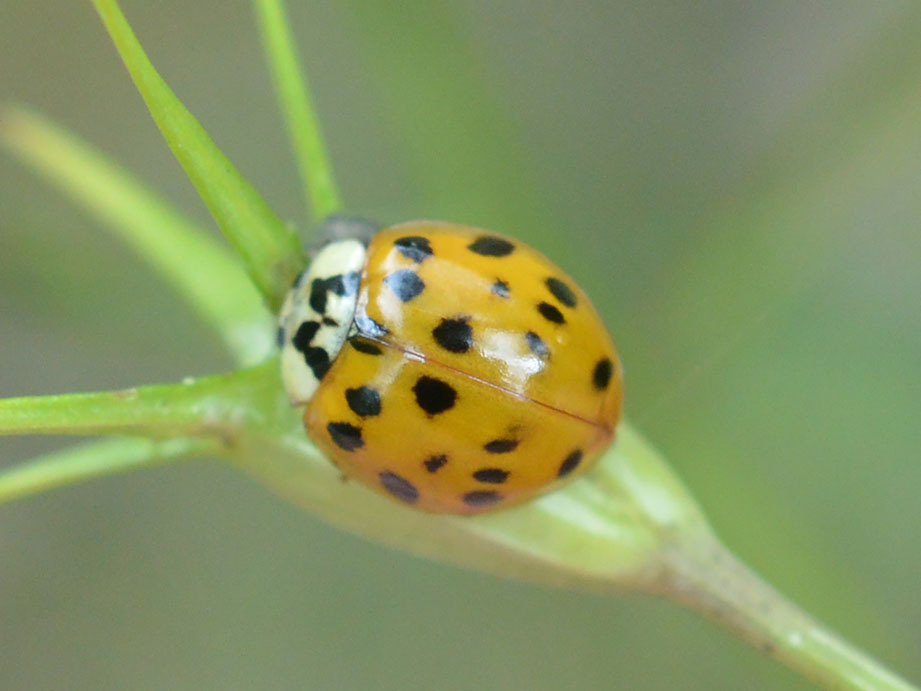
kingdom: Animalia
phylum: Arthropoda
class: Insecta
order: Coleoptera
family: Coccinellidae
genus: Harmonia
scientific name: Harmonia axyridis
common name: Harlequin ladybird
